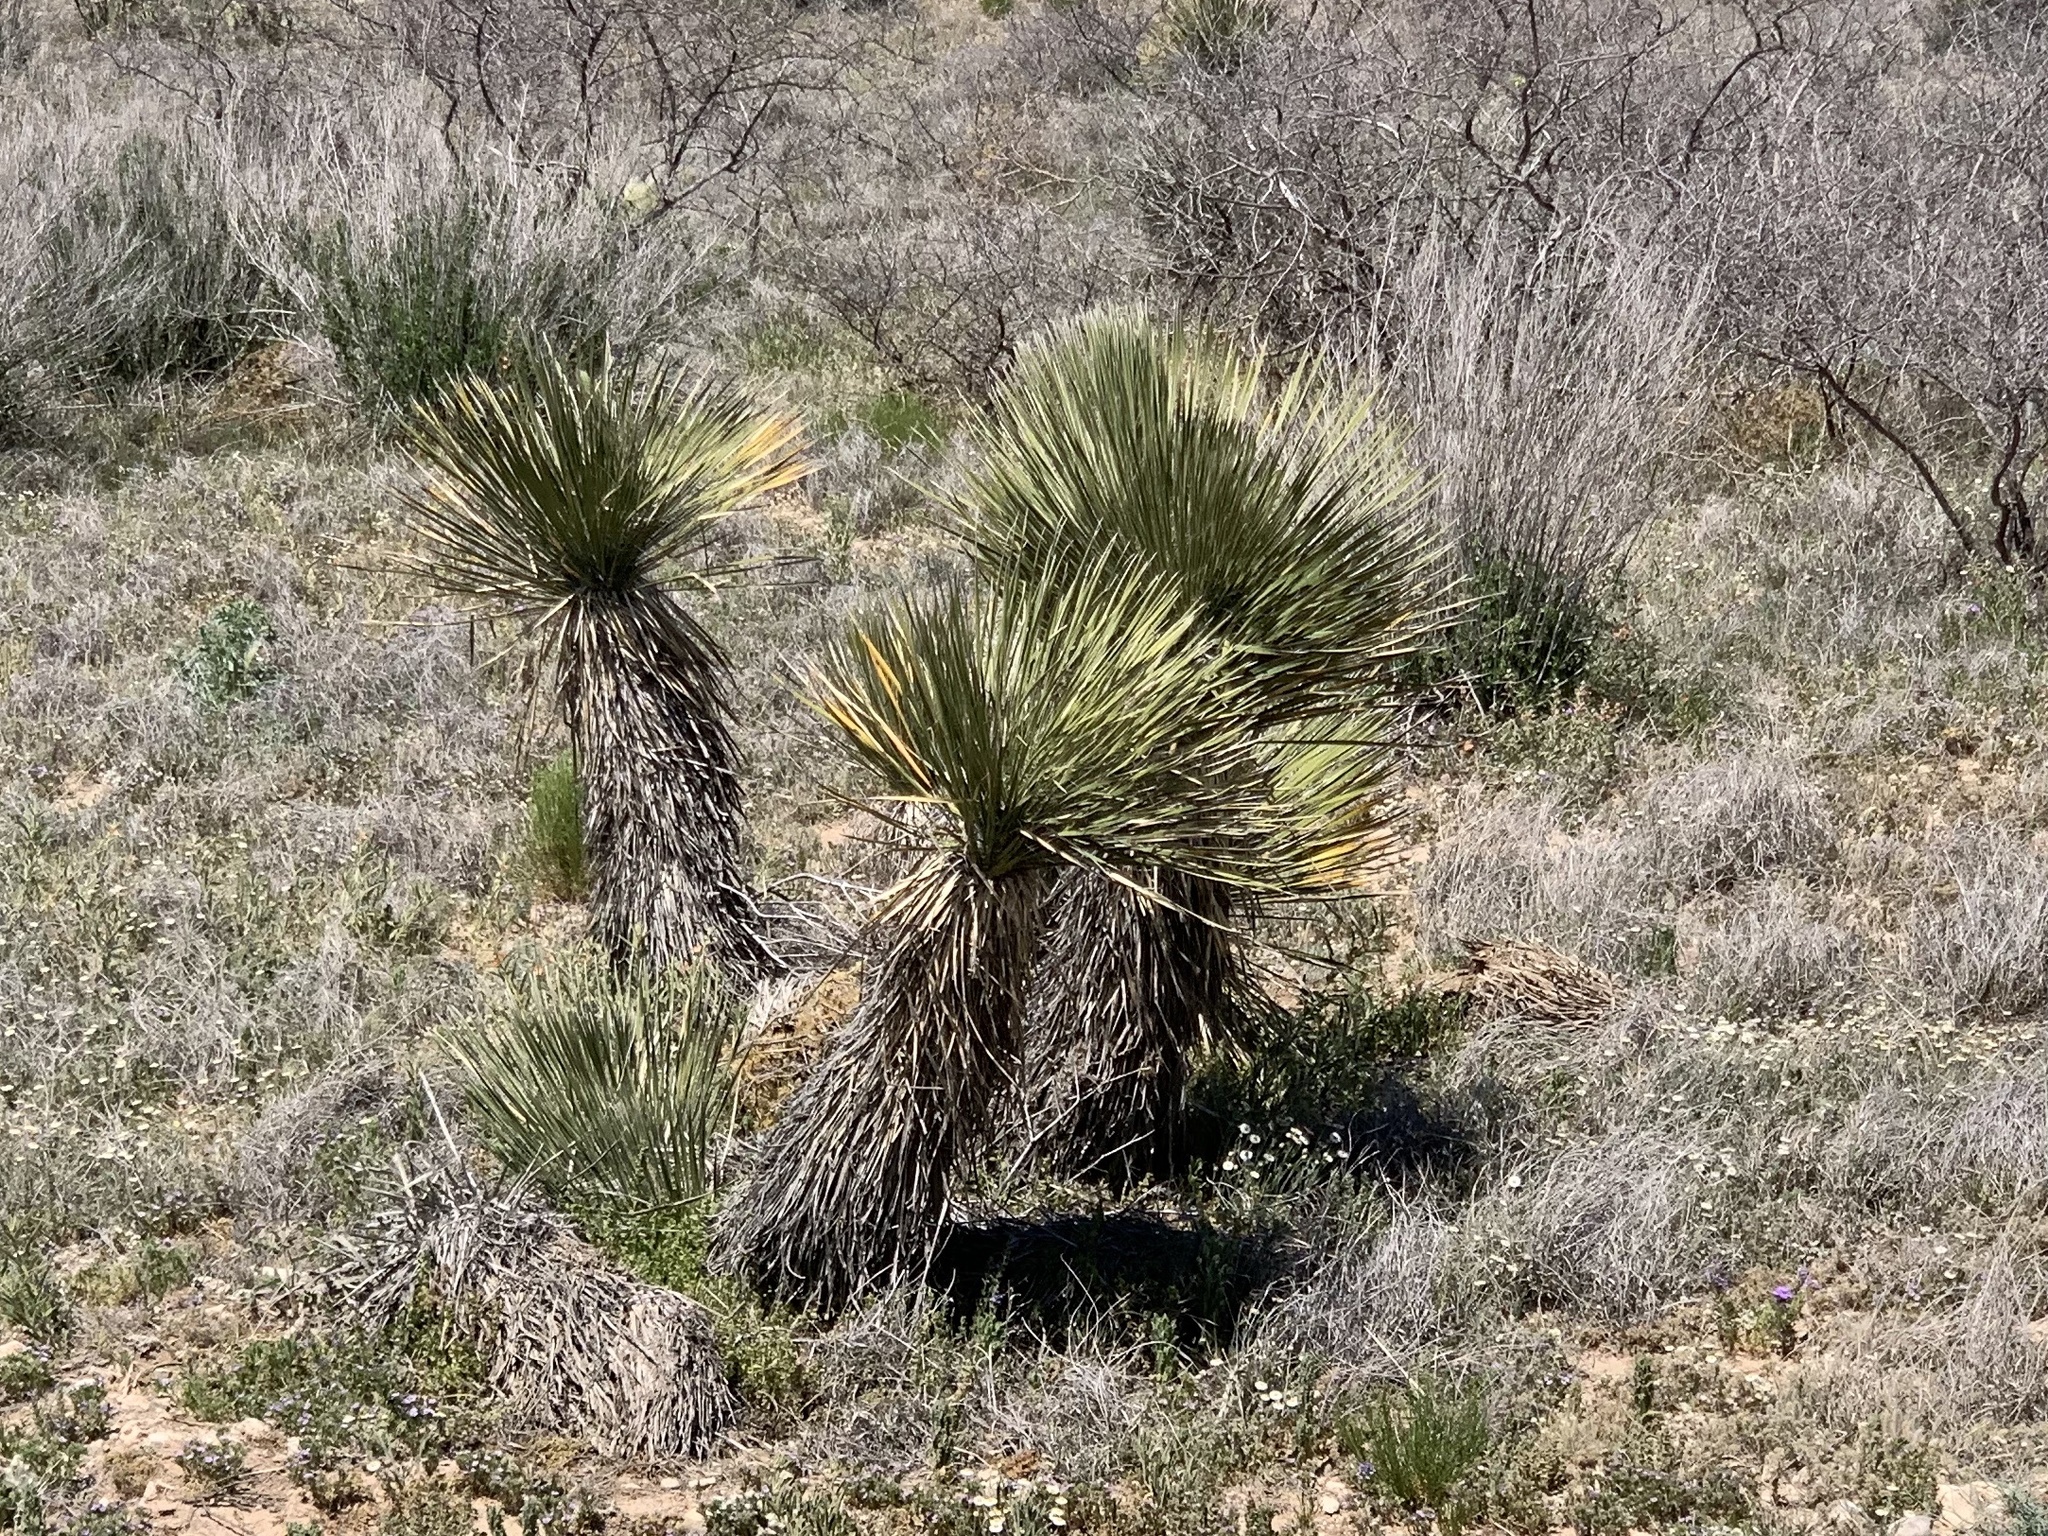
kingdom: Plantae
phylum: Tracheophyta
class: Liliopsida
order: Asparagales
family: Asparagaceae
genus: Yucca
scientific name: Yucca elata
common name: Palmella
